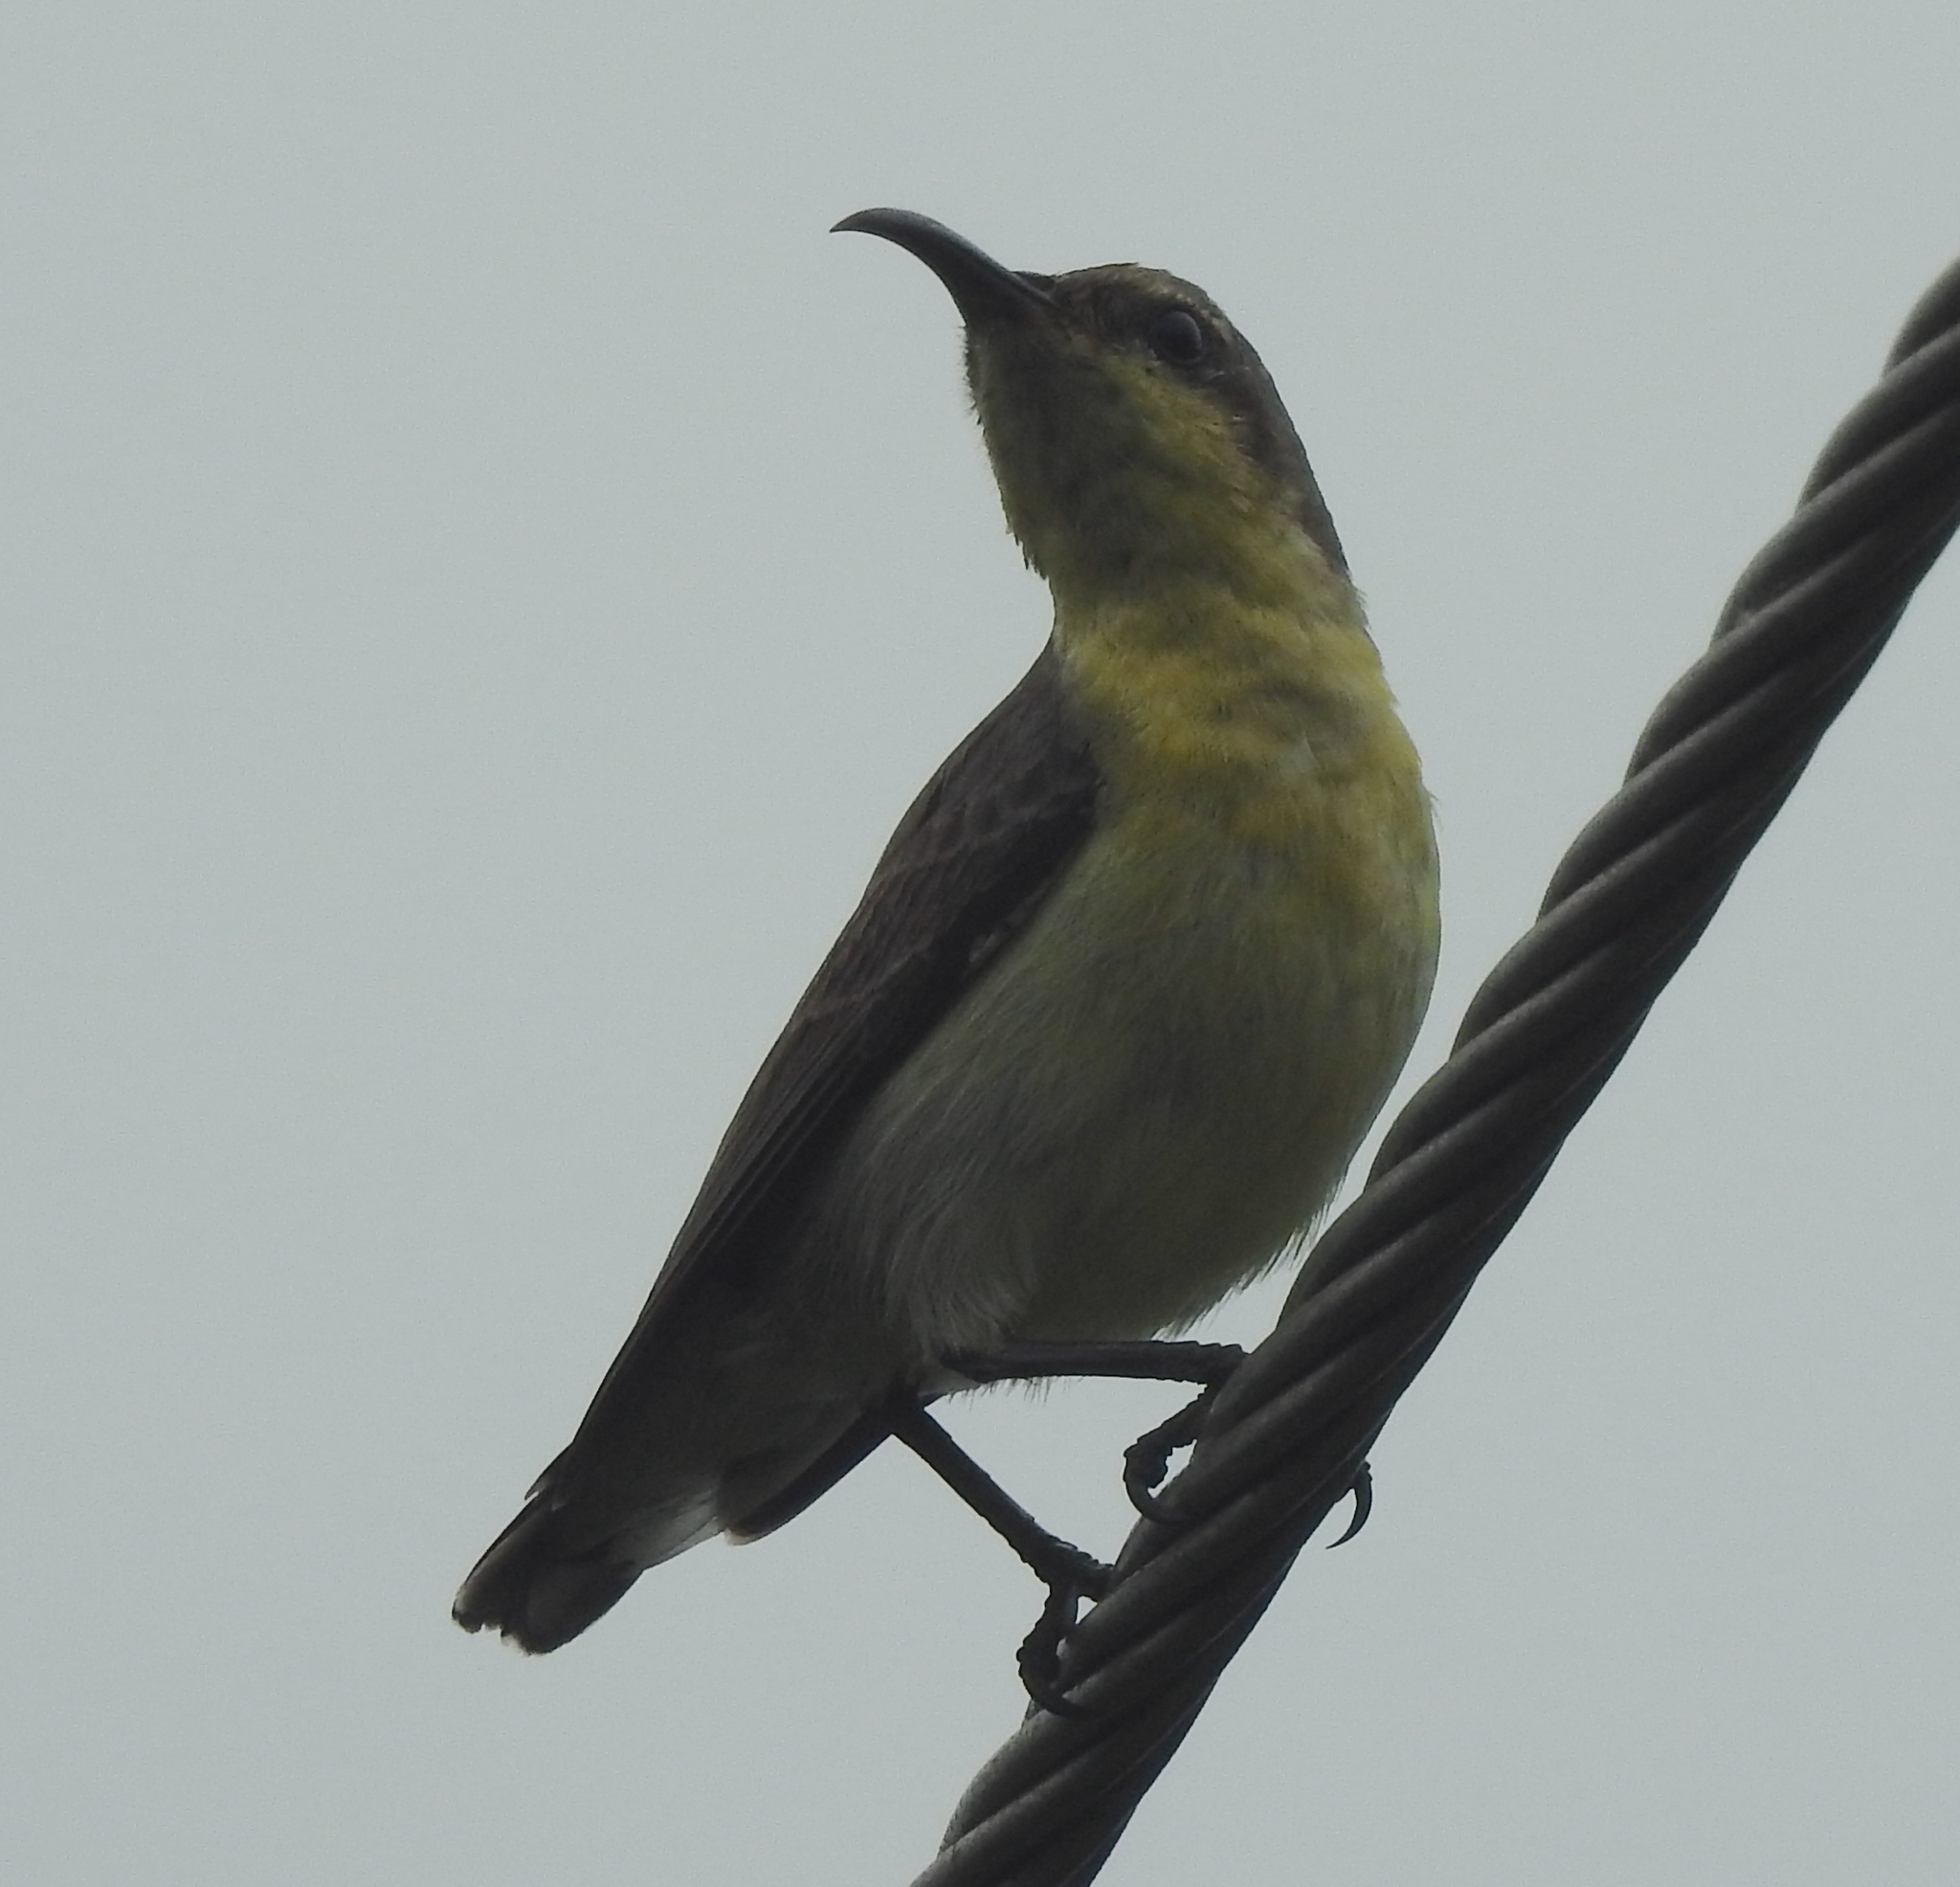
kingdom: Animalia
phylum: Chordata
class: Aves
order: Passeriformes
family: Nectariniidae
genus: Cinnyris
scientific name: Cinnyris asiaticus
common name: Purple sunbird
